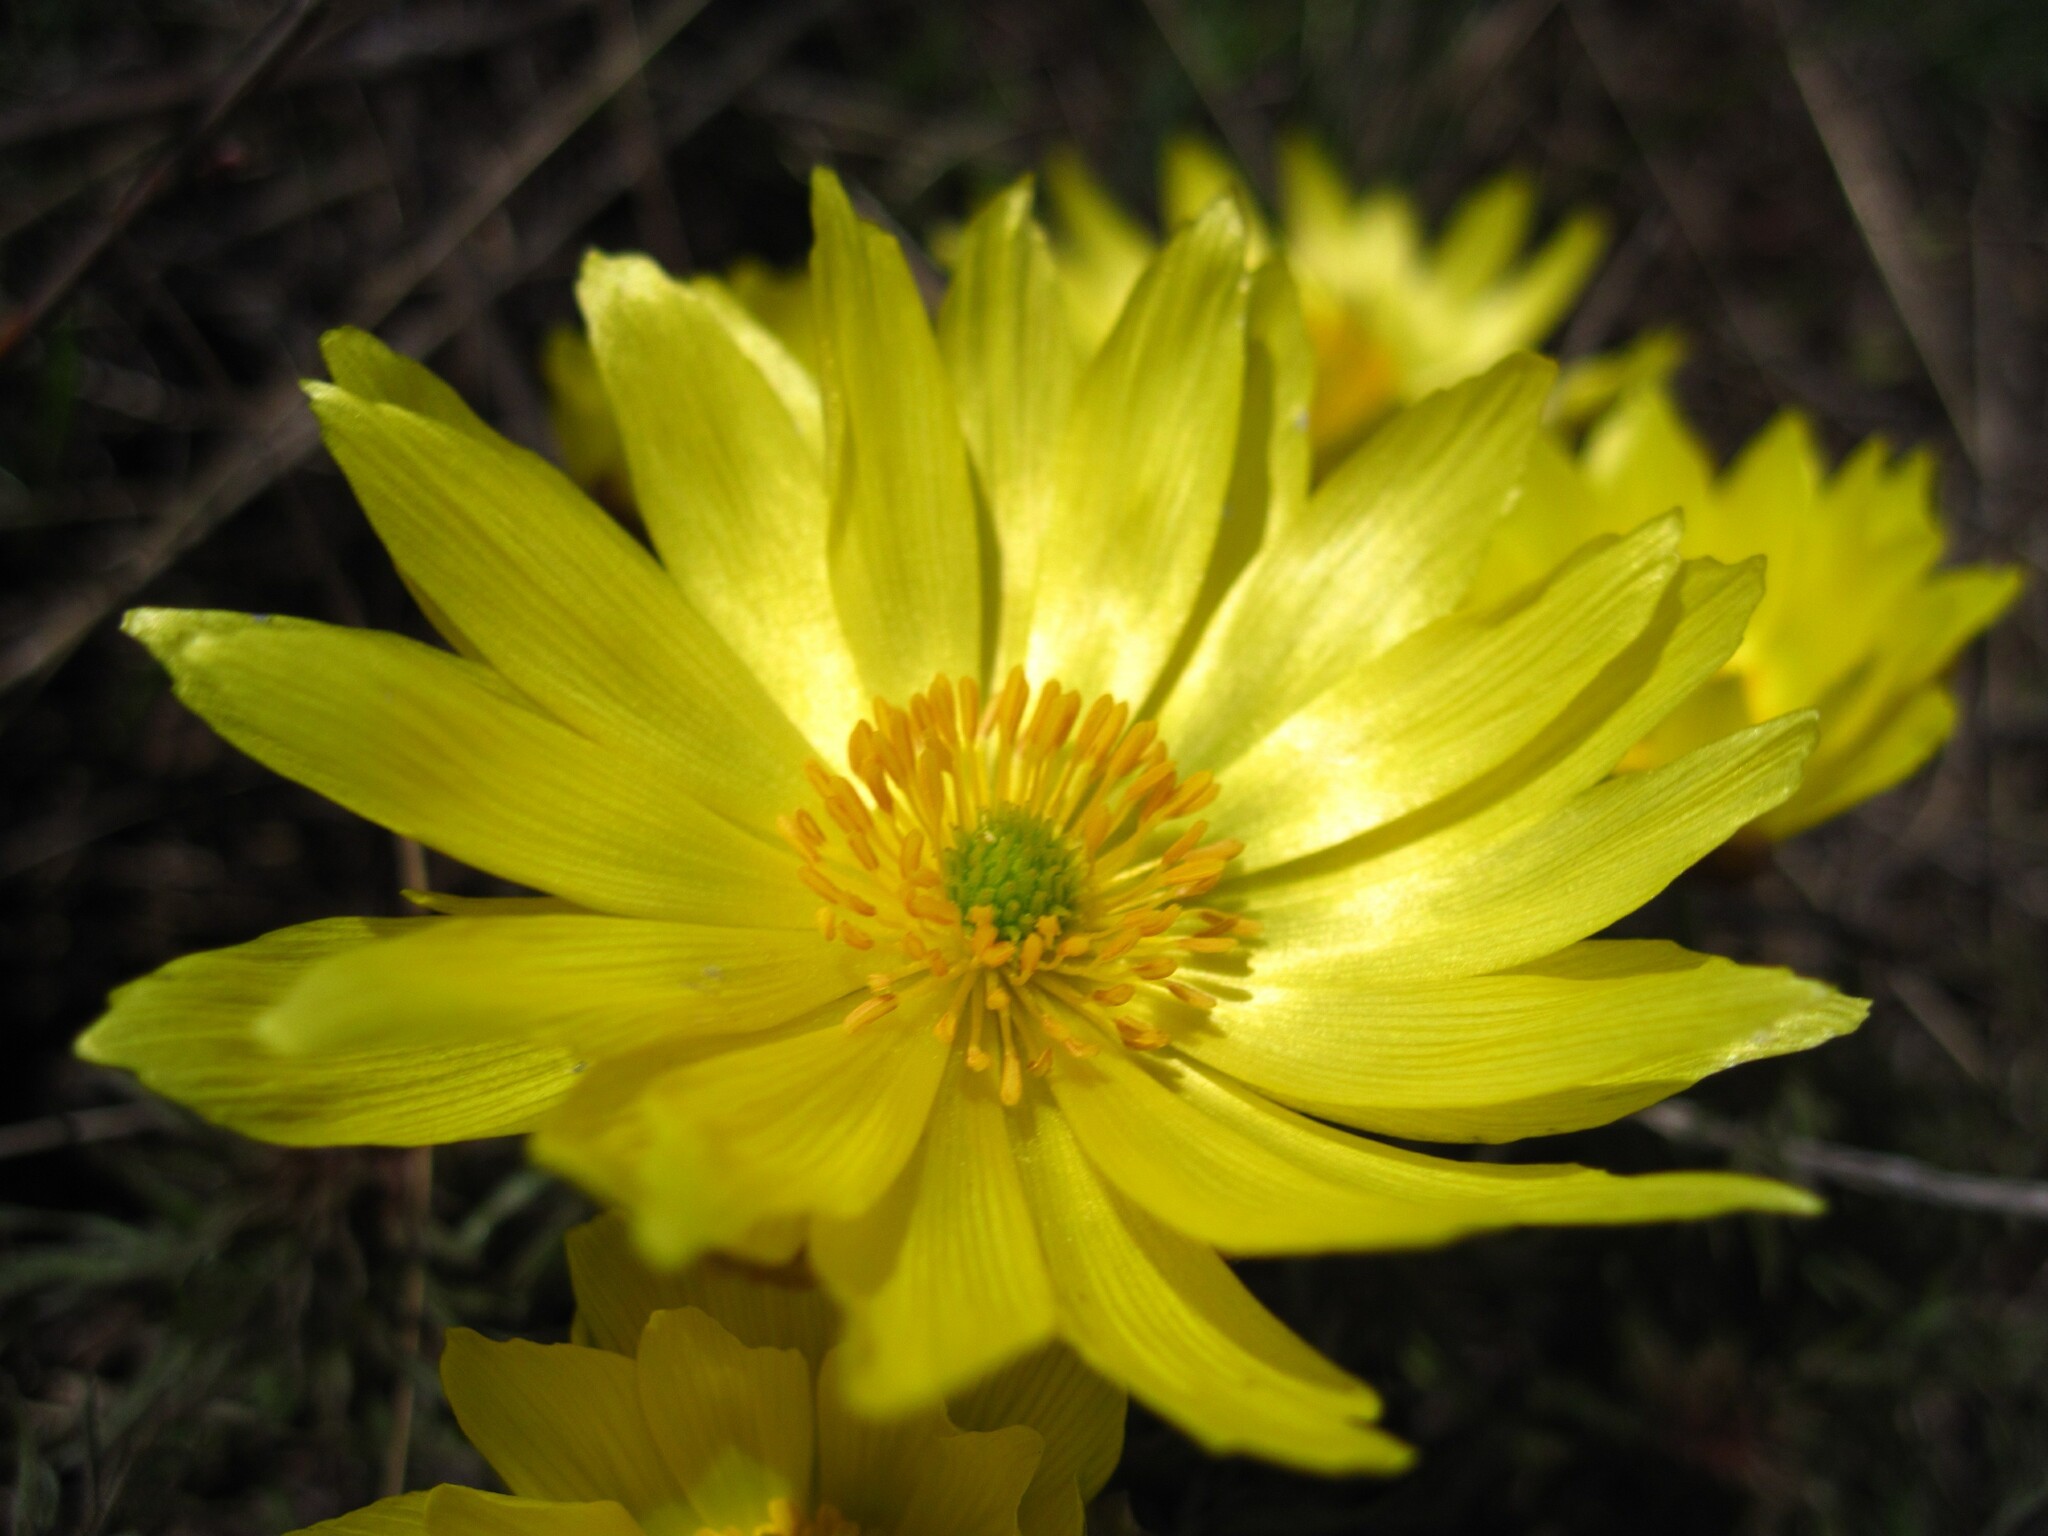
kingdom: Plantae
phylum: Tracheophyta
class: Magnoliopsida
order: Ranunculales
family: Ranunculaceae
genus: Adonis
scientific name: Adonis volgensis
